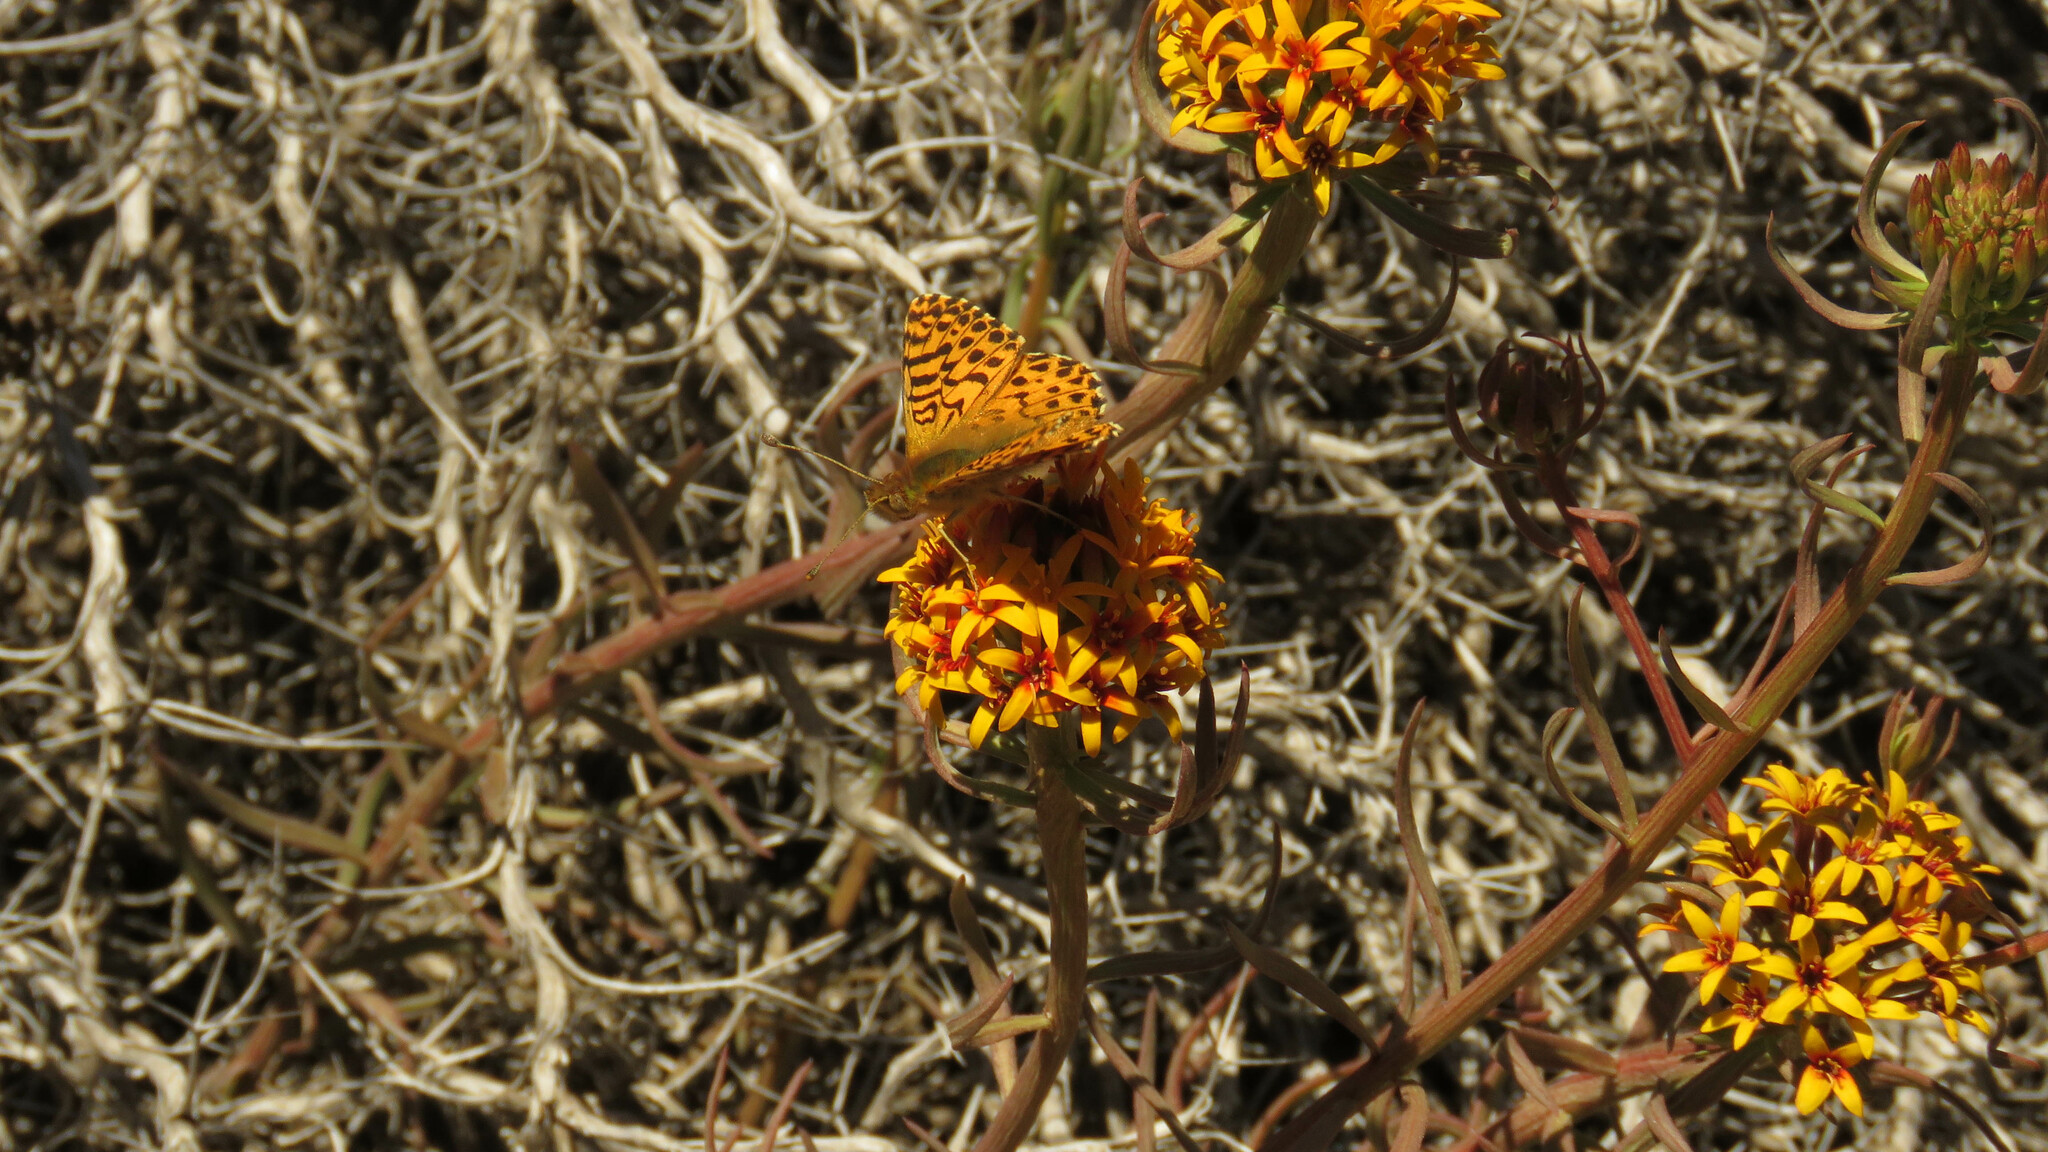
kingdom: Animalia
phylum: Arthropoda
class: Insecta
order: Lepidoptera
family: Nymphalidae
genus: Issoria
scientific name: Issoria Yramea lathonoides
